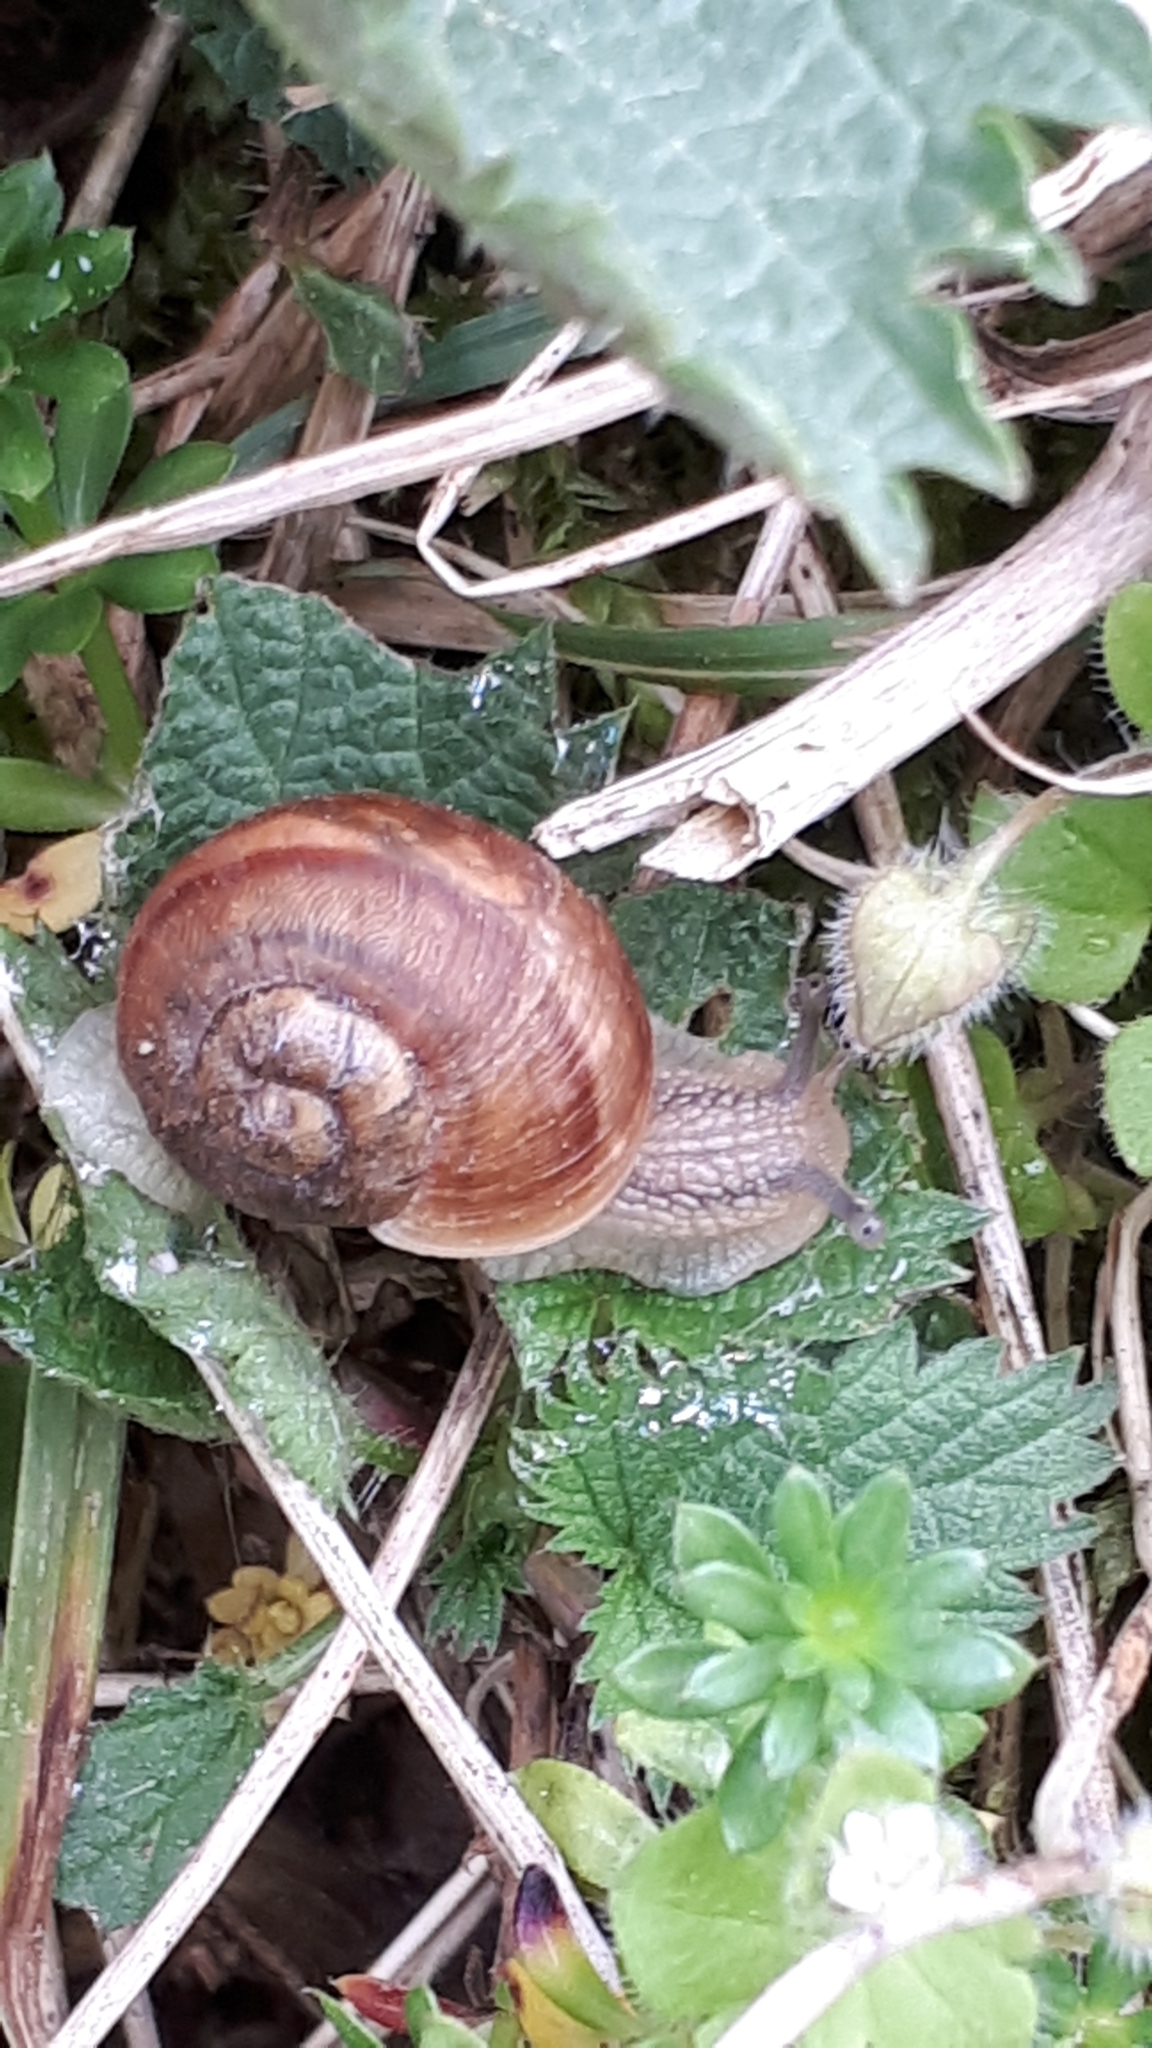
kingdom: Animalia
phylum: Mollusca
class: Gastropoda
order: Stylommatophora
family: Helicidae
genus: Helix
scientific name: Helix pomatia
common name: Roman snail
